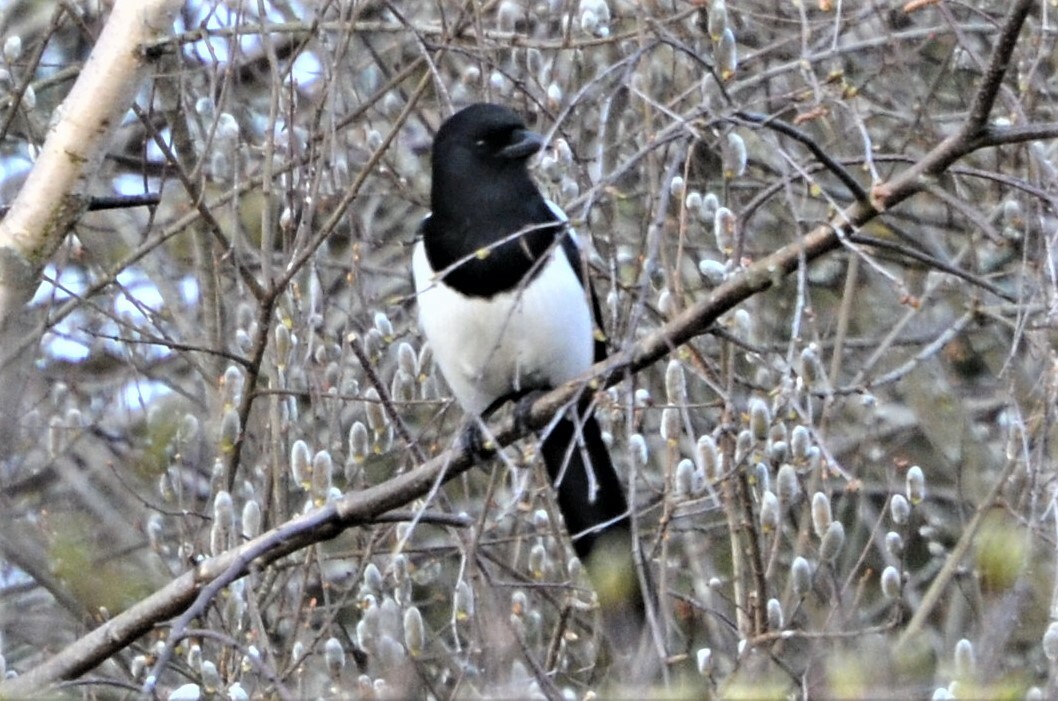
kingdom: Animalia
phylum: Chordata
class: Aves
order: Passeriformes
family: Corvidae
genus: Pica
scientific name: Pica pica
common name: Eurasian magpie
